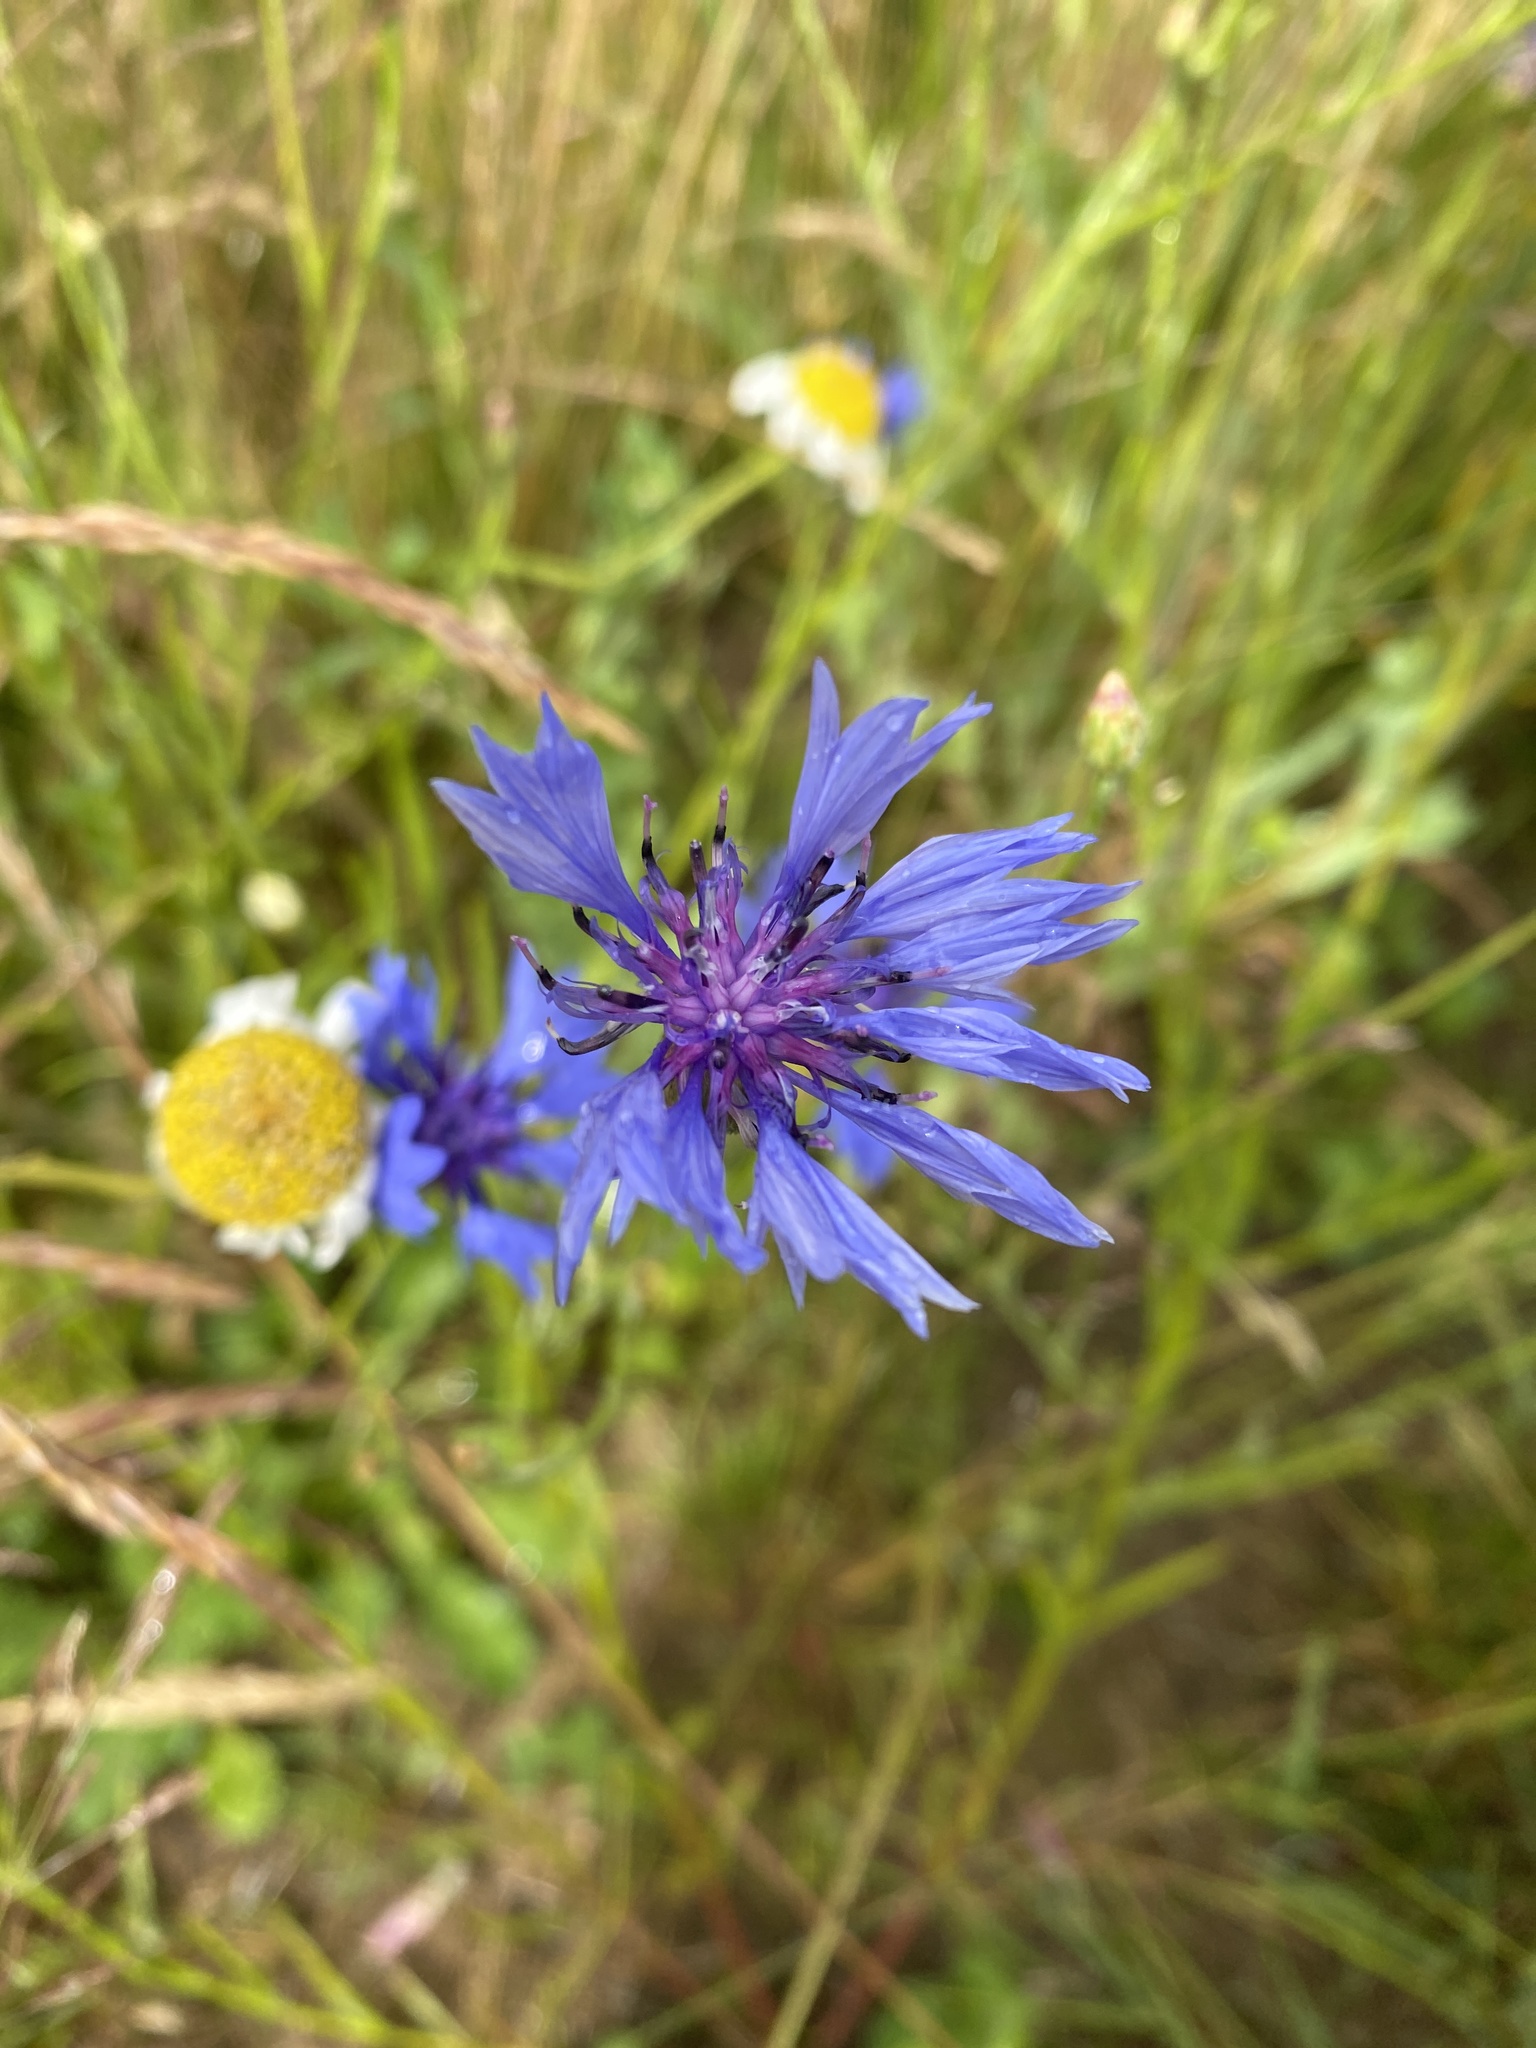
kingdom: Plantae
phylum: Tracheophyta
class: Magnoliopsida
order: Asterales
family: Asteraceae
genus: Centaurea
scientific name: Centaurea cyanus
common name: Cornflower
